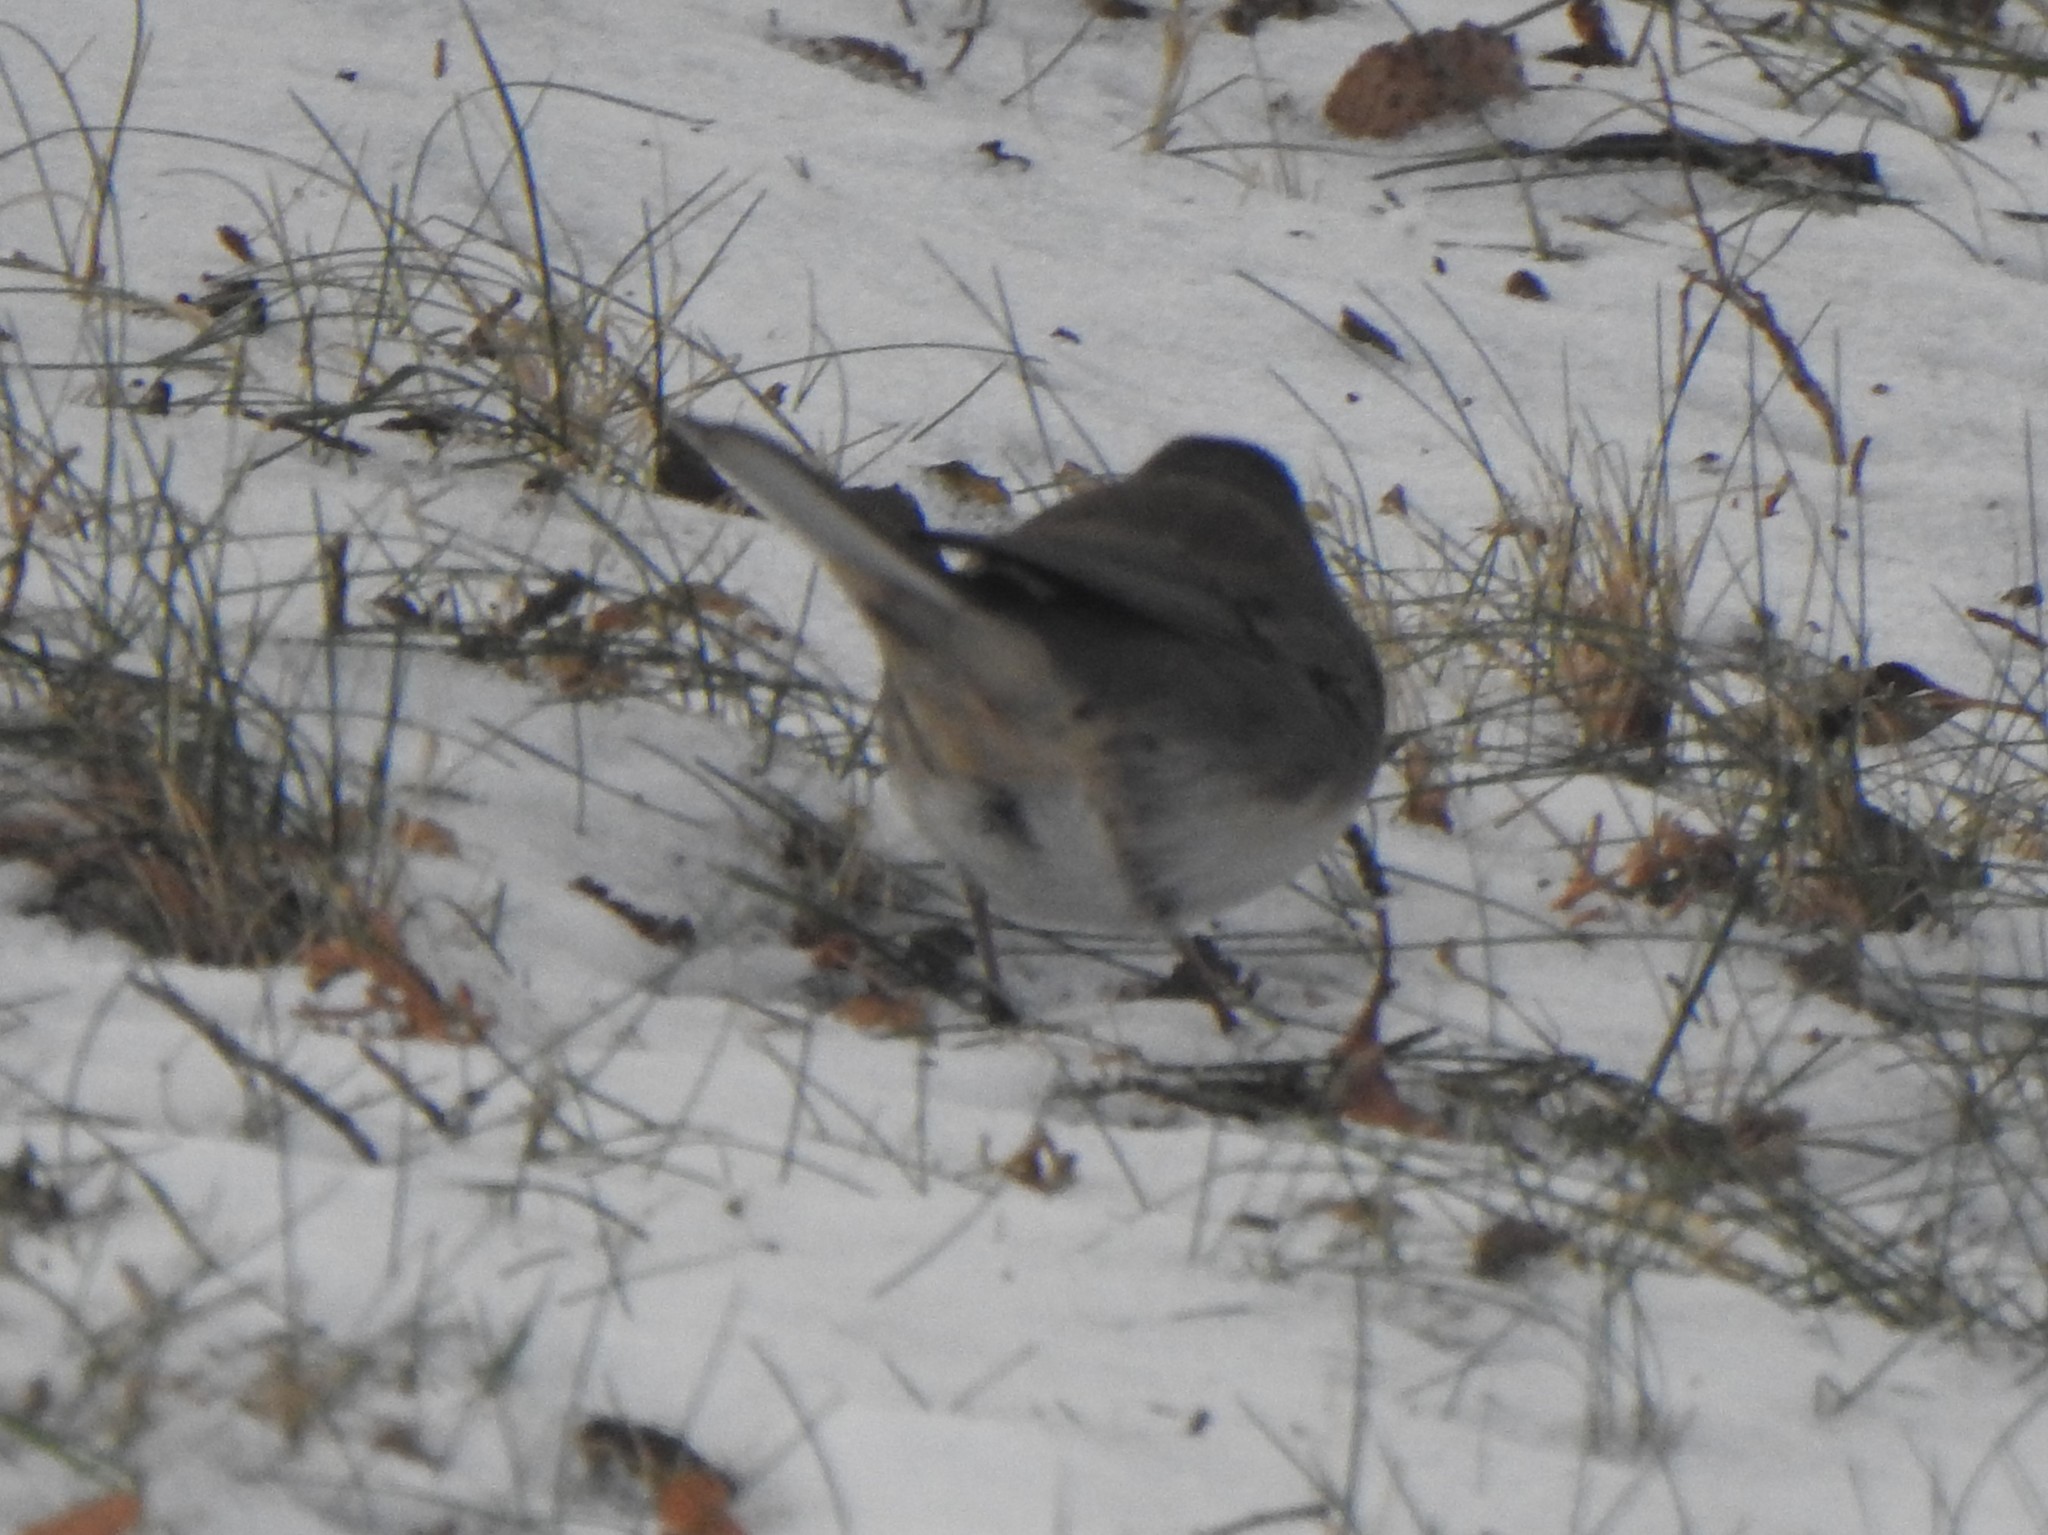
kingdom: Animalia
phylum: Chordata
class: Aves
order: Passeriformes
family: Passerellidae
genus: Junco
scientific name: Junco hyemalis
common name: Dark-eyed junco
